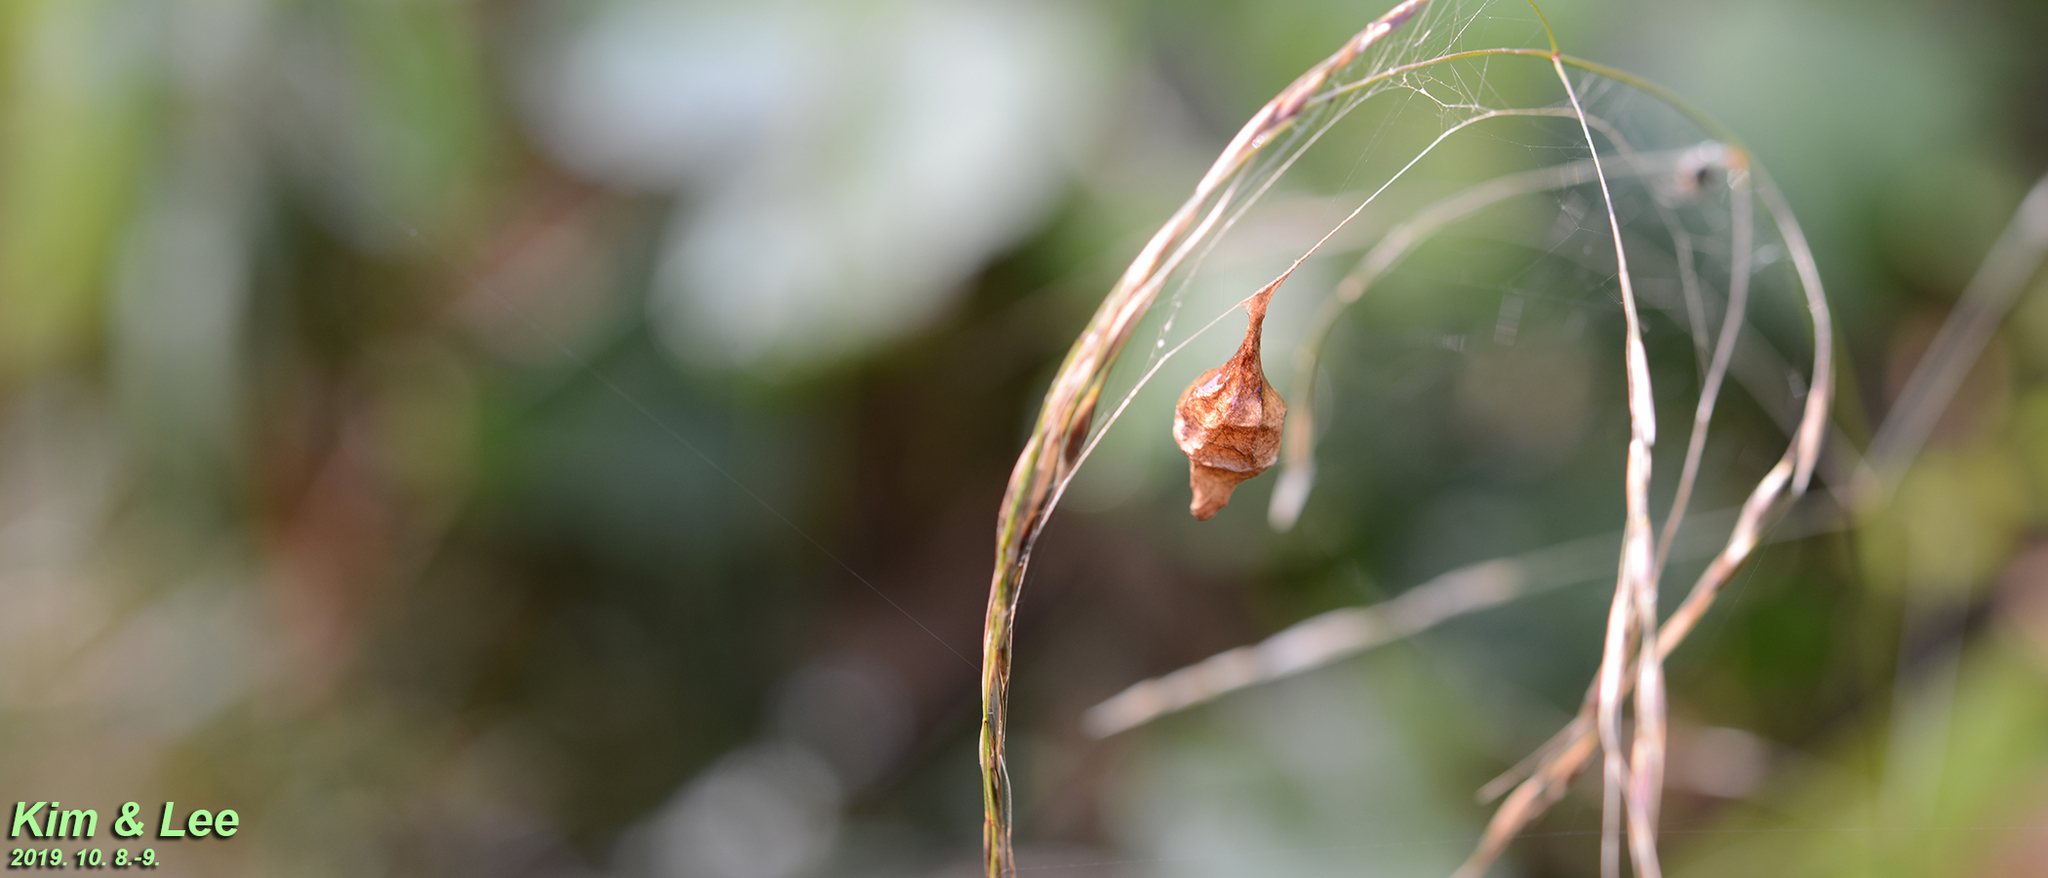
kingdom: Animalia
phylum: Arthropoda
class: Arachnida
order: Araneae
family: Araneidae
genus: Cyrtarachne
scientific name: Cyrtarachne inaequalis
